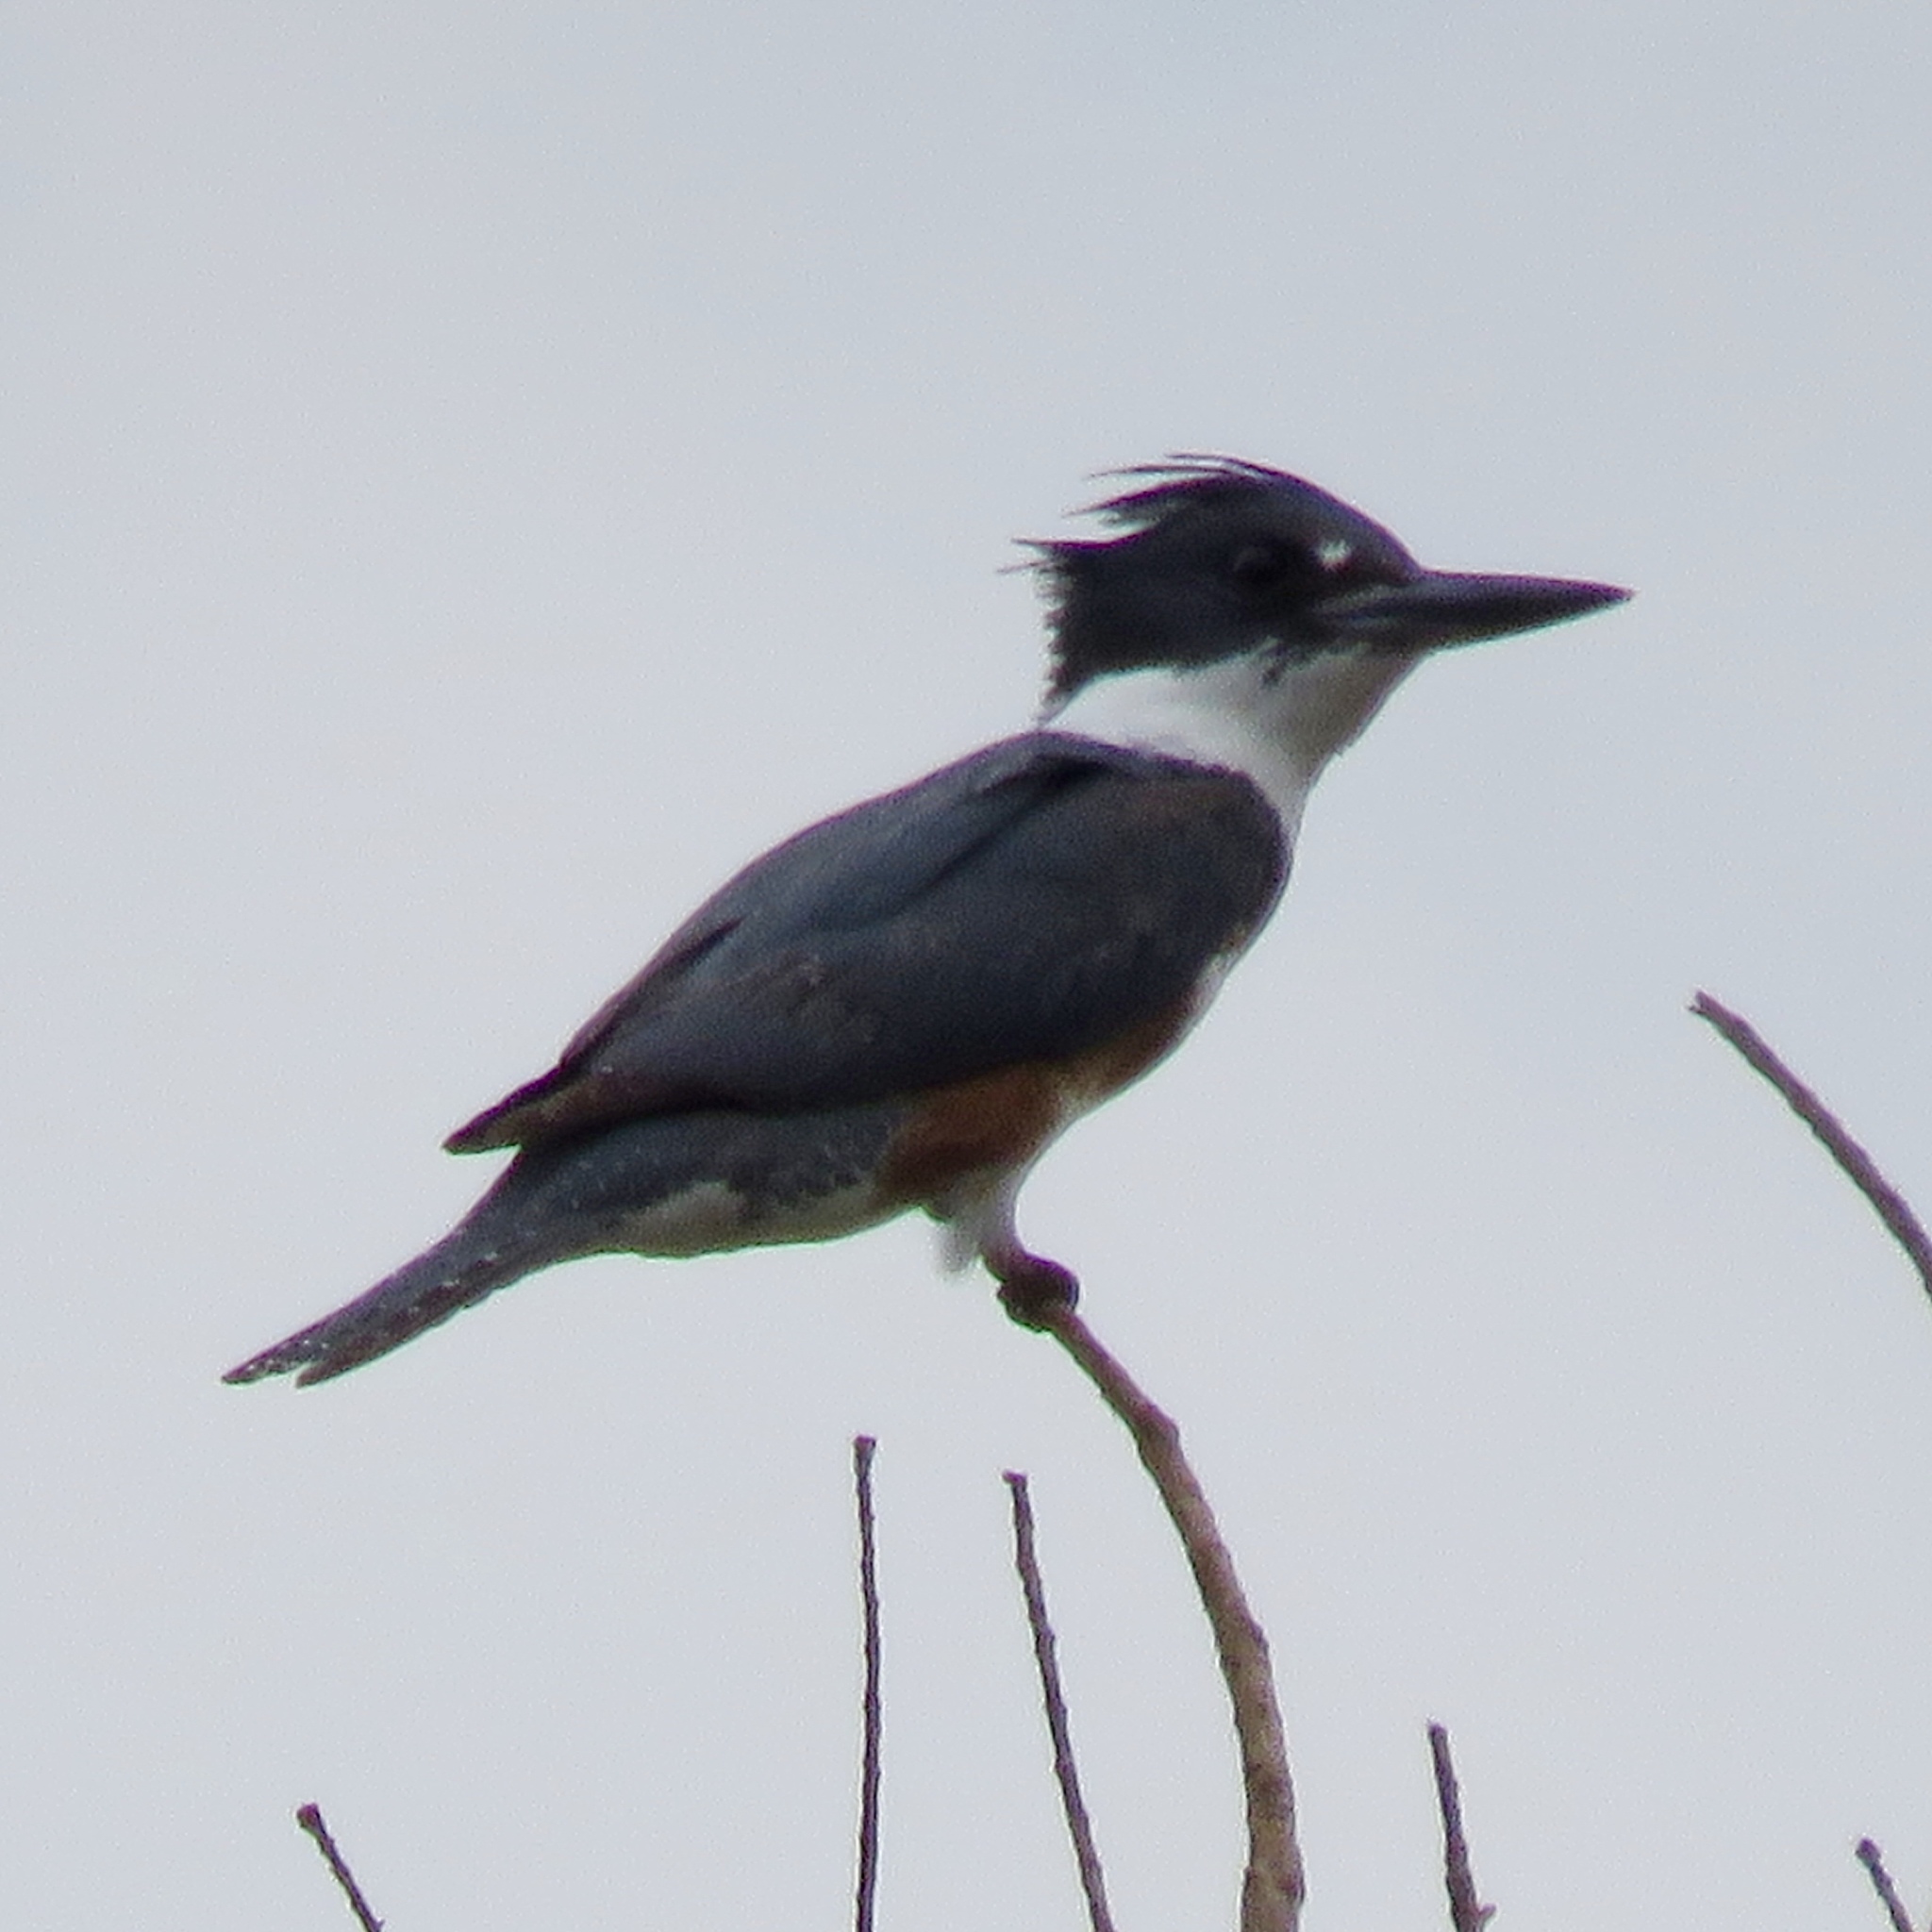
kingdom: Animalia
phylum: Chordata
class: Aves
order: Coraciiformes
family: Alcedinidae
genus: Megaceryle
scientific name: Megaceryle alcyon
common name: Belted kingfisher
